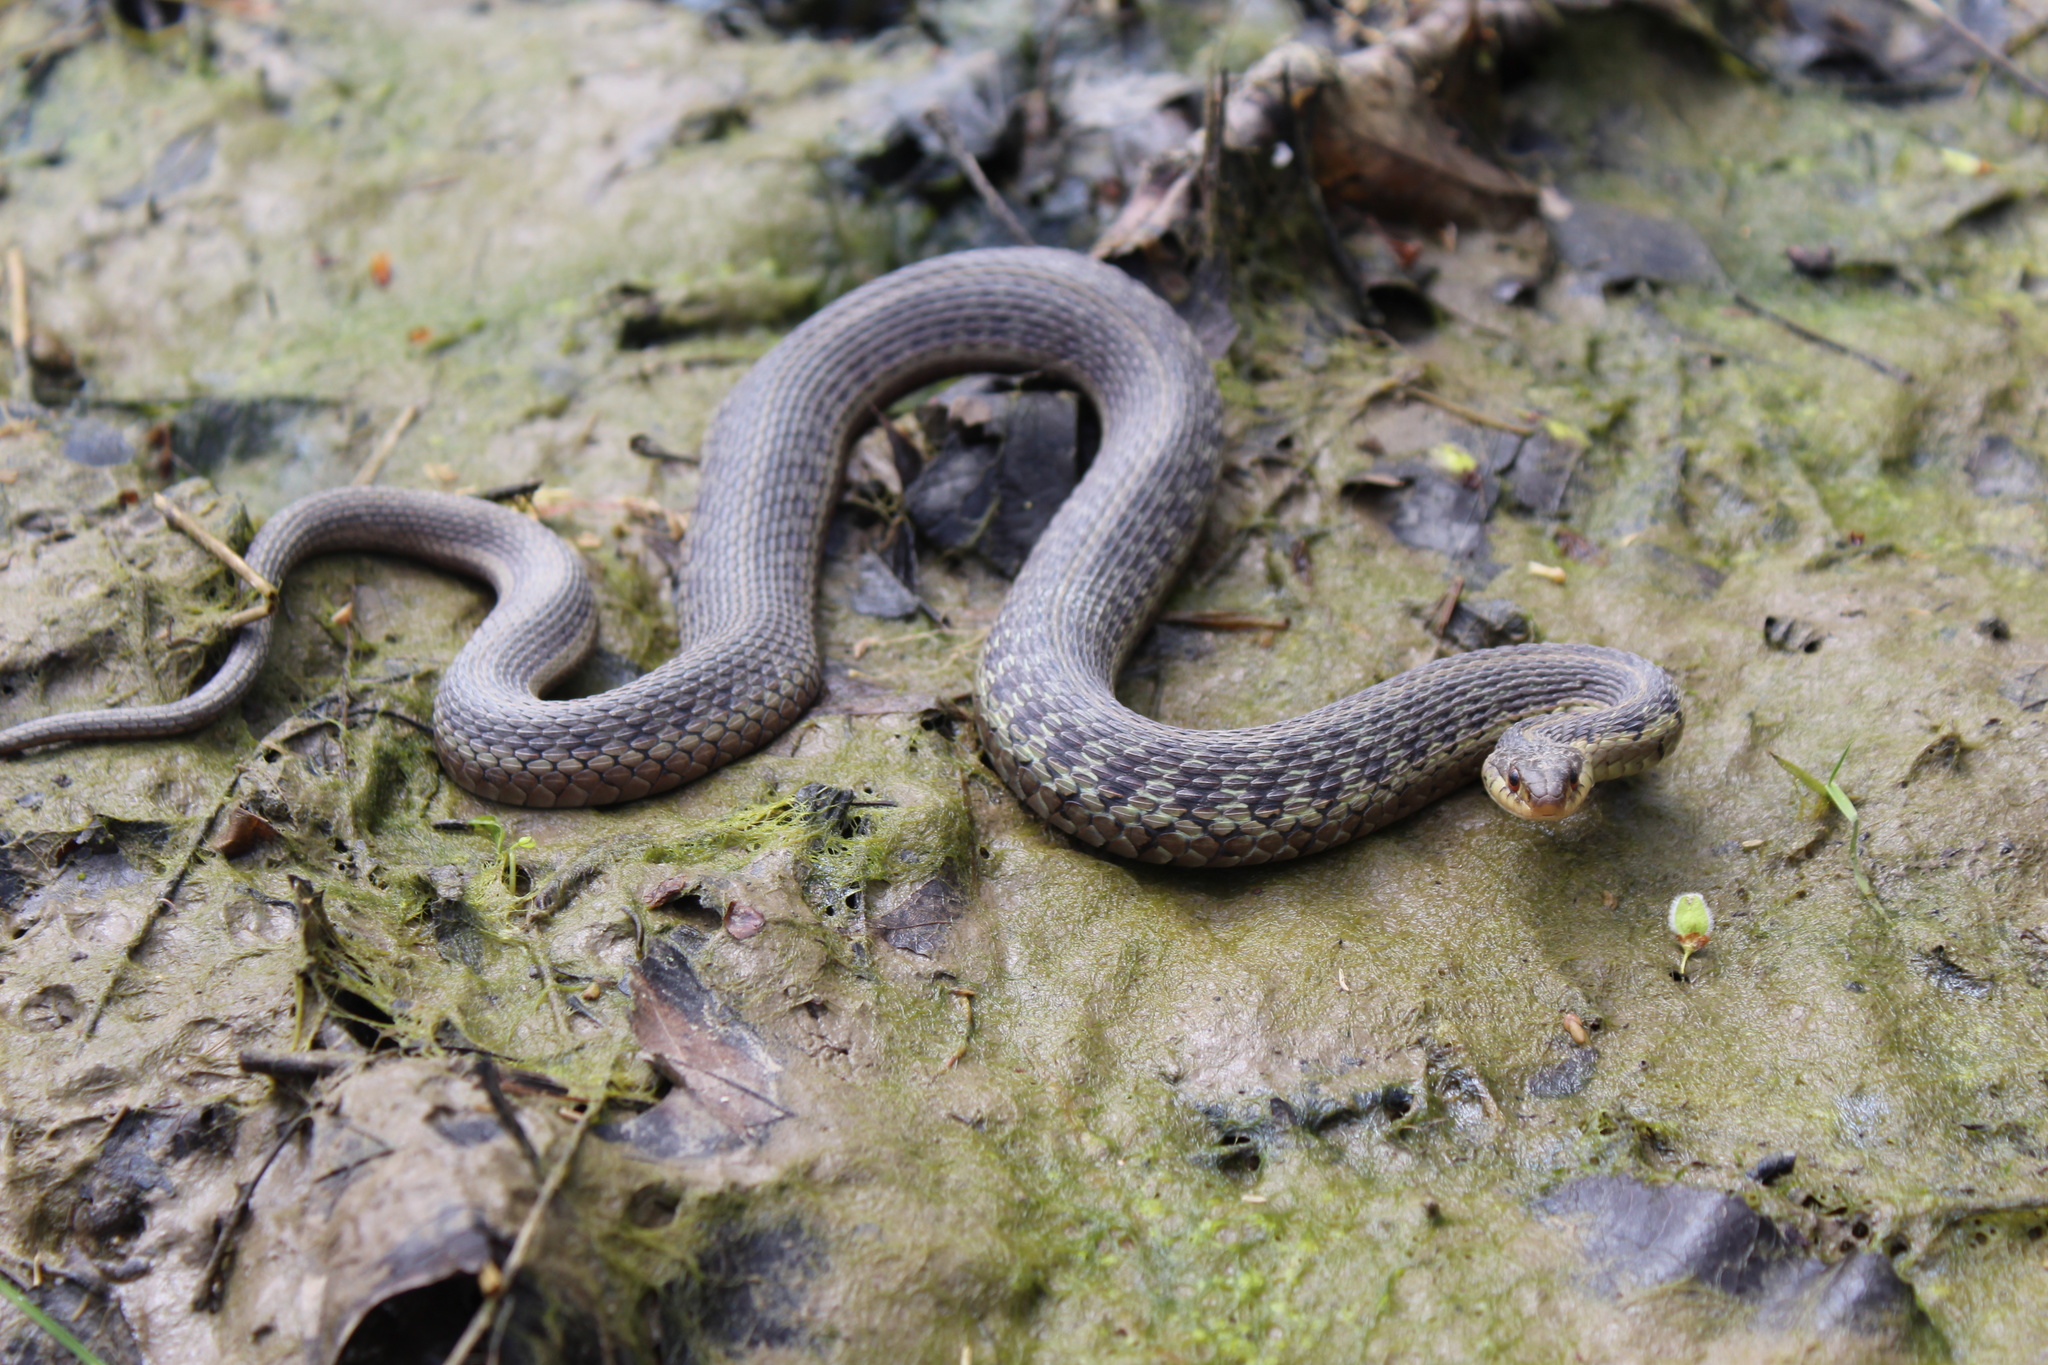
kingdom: Animalia
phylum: Chordata
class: Squamata
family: Colubridae
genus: Thamnophis
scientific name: Thamnophis sirtalis
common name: Common garter snake
